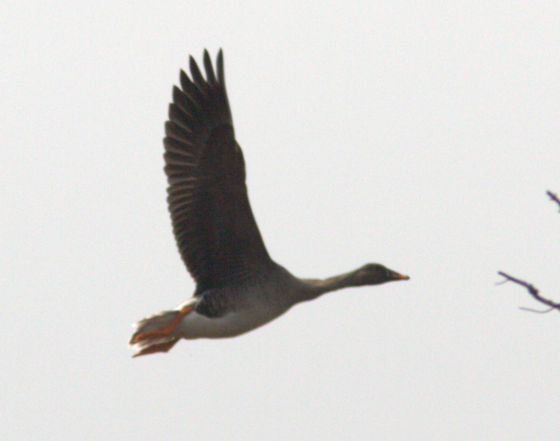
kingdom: Animalia
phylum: Chordata
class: Aves
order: Anseriformes
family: Anatidae
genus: Anser
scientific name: Anser fabalis
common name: Bean goose
